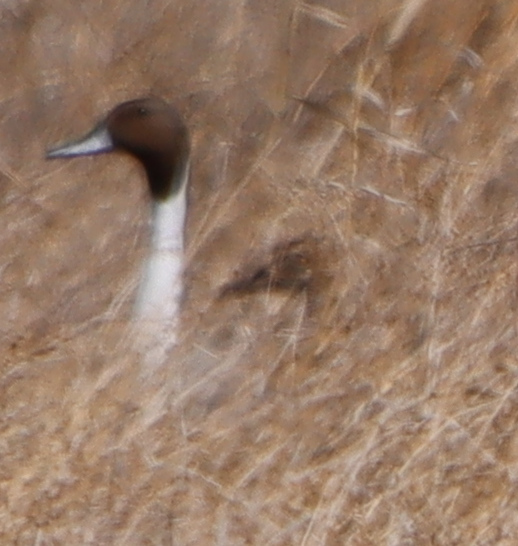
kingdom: Animalia
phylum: Chordata
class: Aves
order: Anseriformes
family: Anatidae
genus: Anas
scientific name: Anas acuta
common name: Northern pintail
